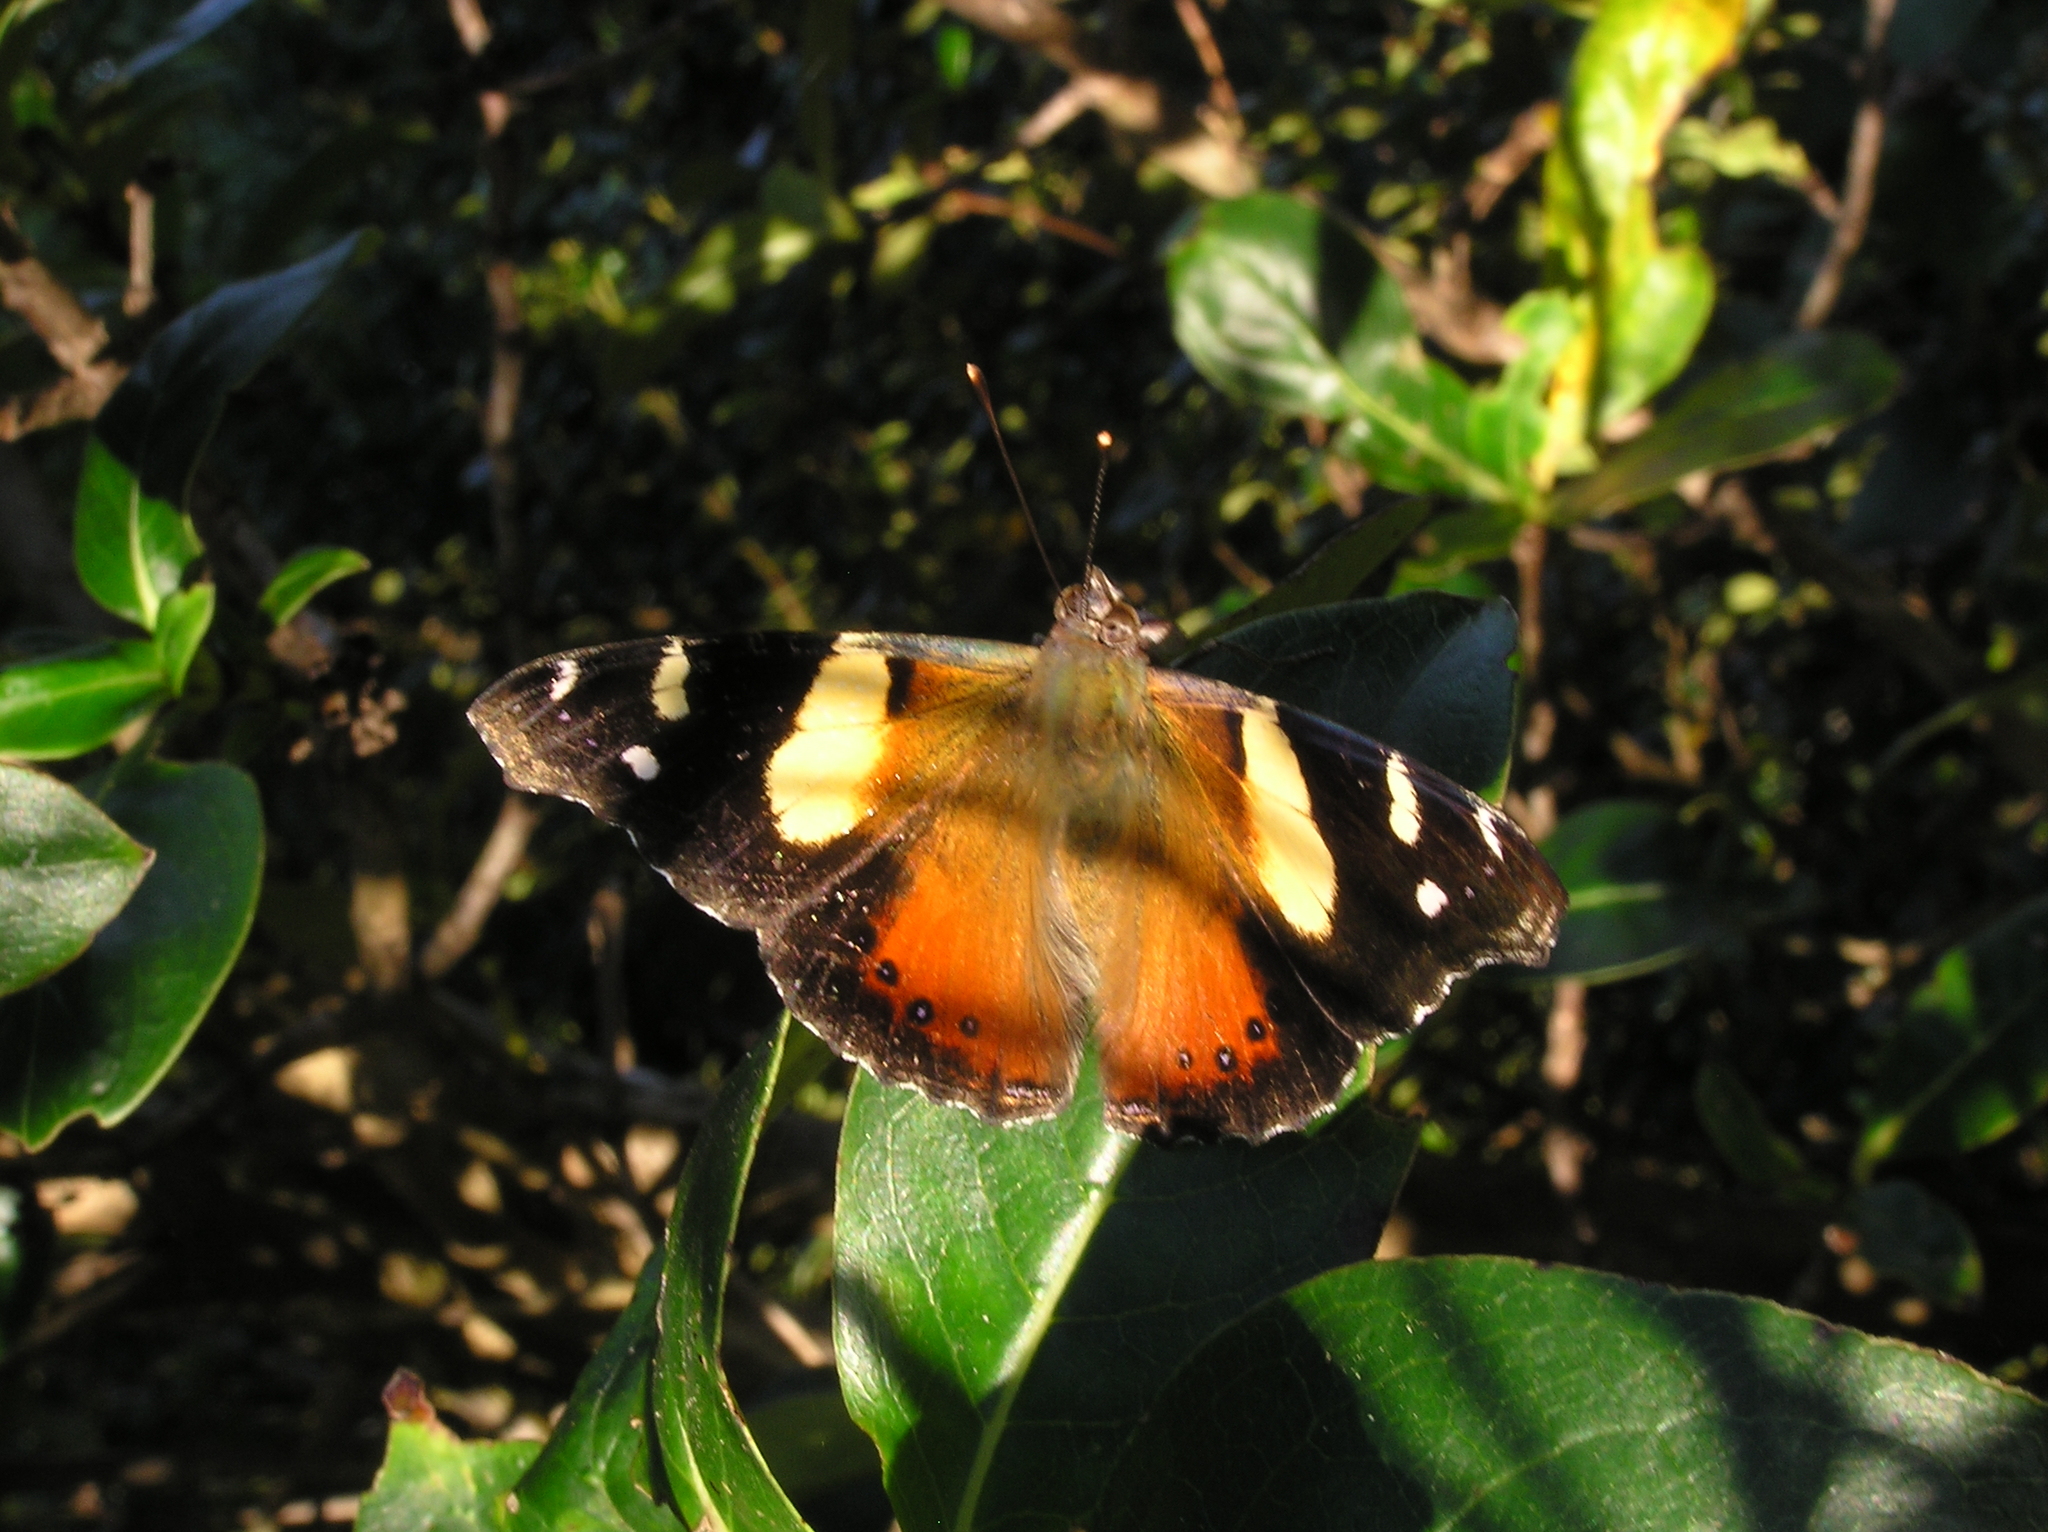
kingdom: Animalia
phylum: Arthropoda
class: Insecta
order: Lepidoptera
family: Nymphalidae
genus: Vanessa
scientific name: Vanessa itea
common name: Yellow admiral
